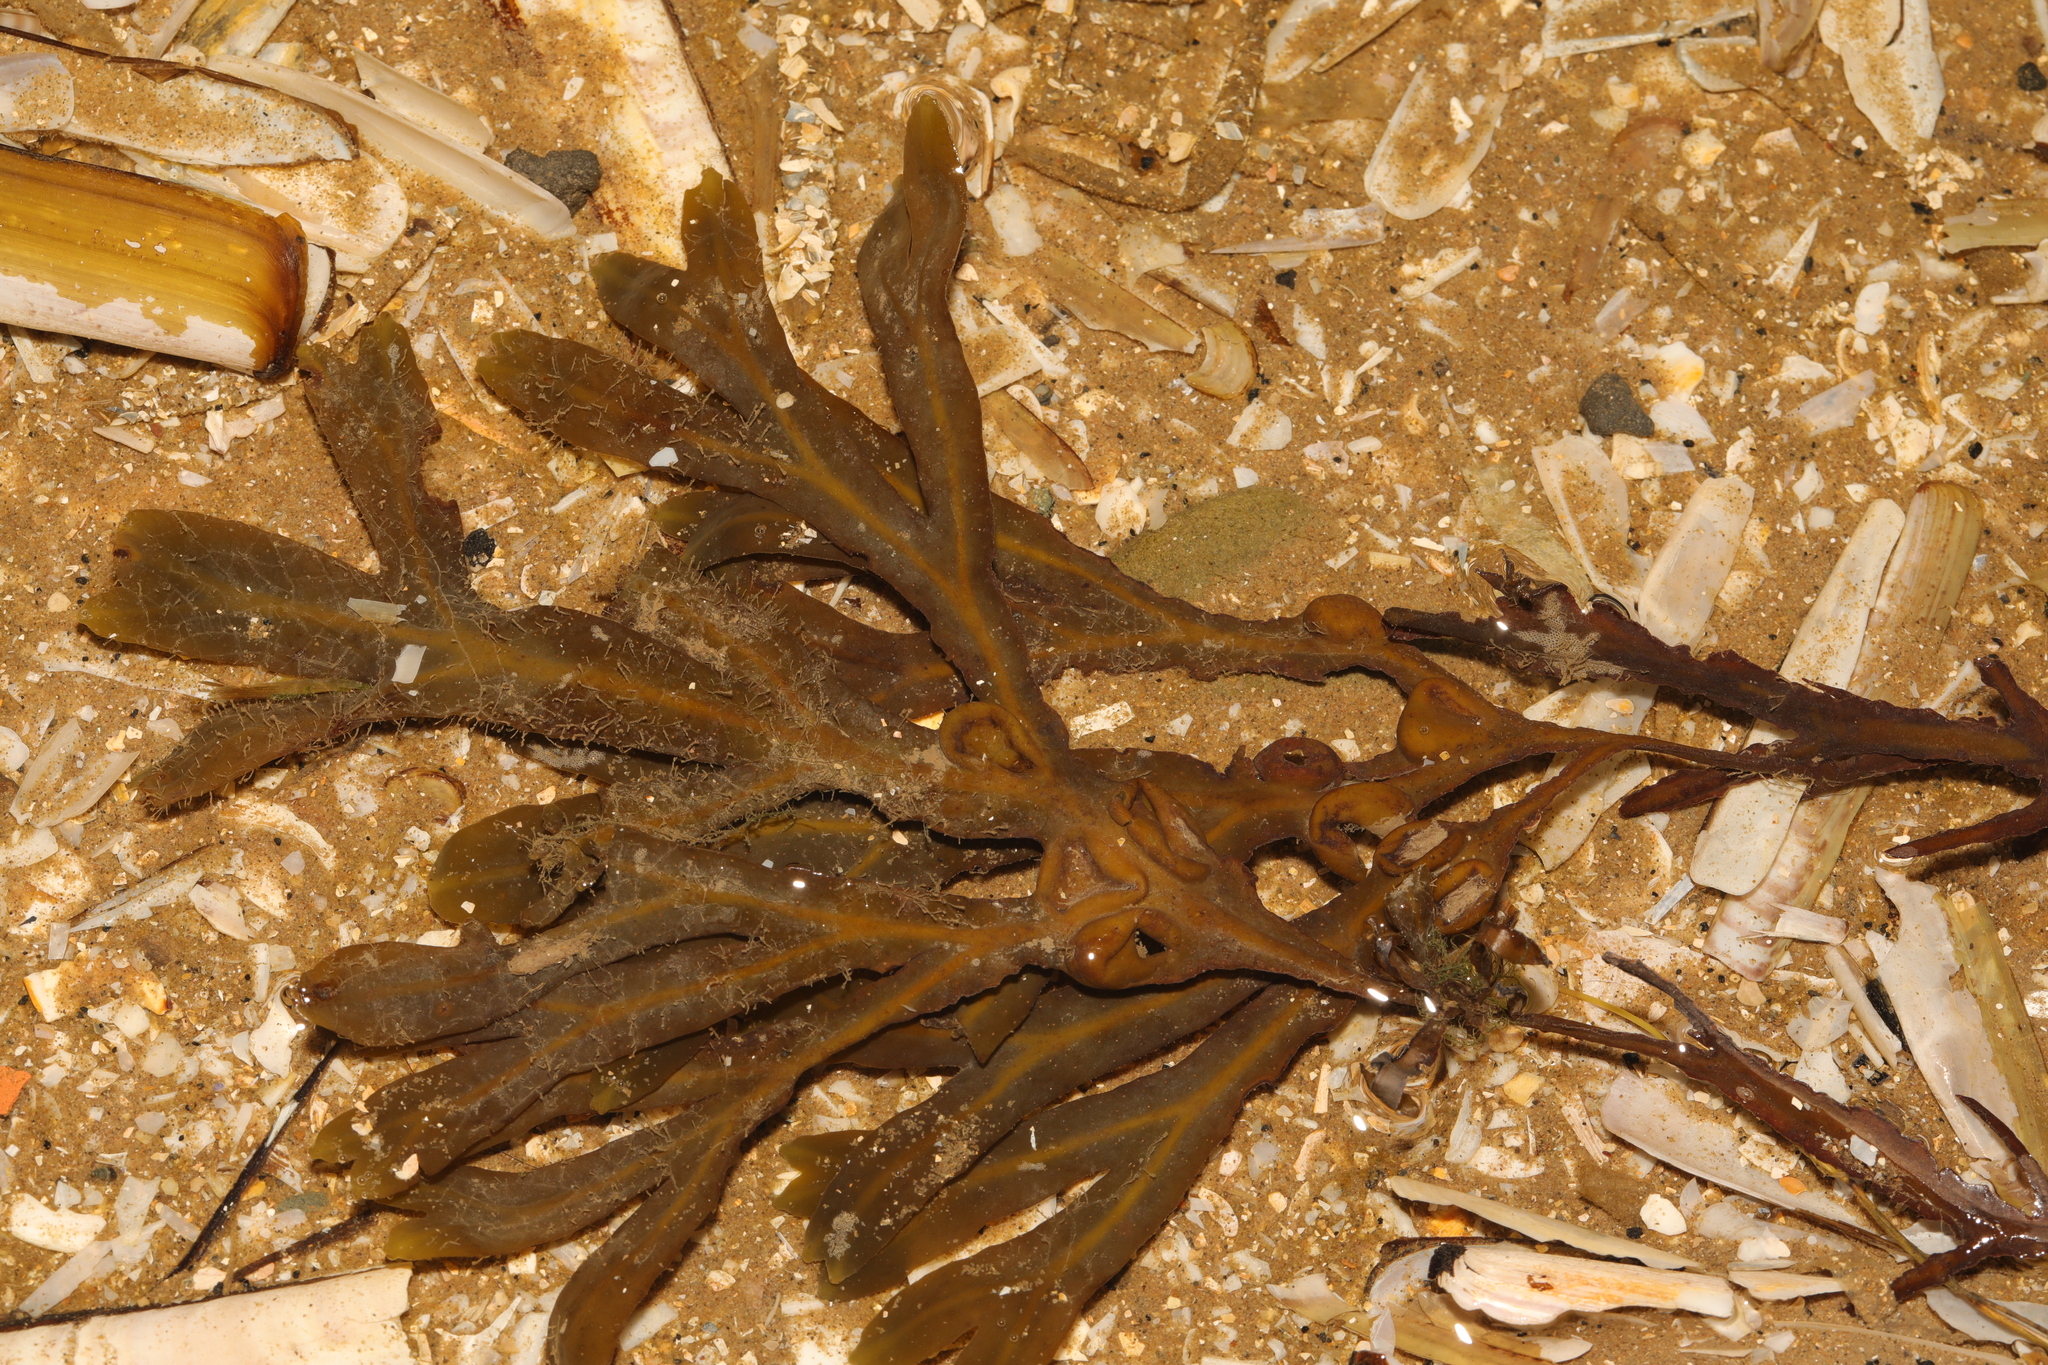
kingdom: Chromista
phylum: Ochrophyta
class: Phaeophyceae
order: Fucales
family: Fucaceae
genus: Fucus
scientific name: Fucus vesiculosus
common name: Bladder wrack
